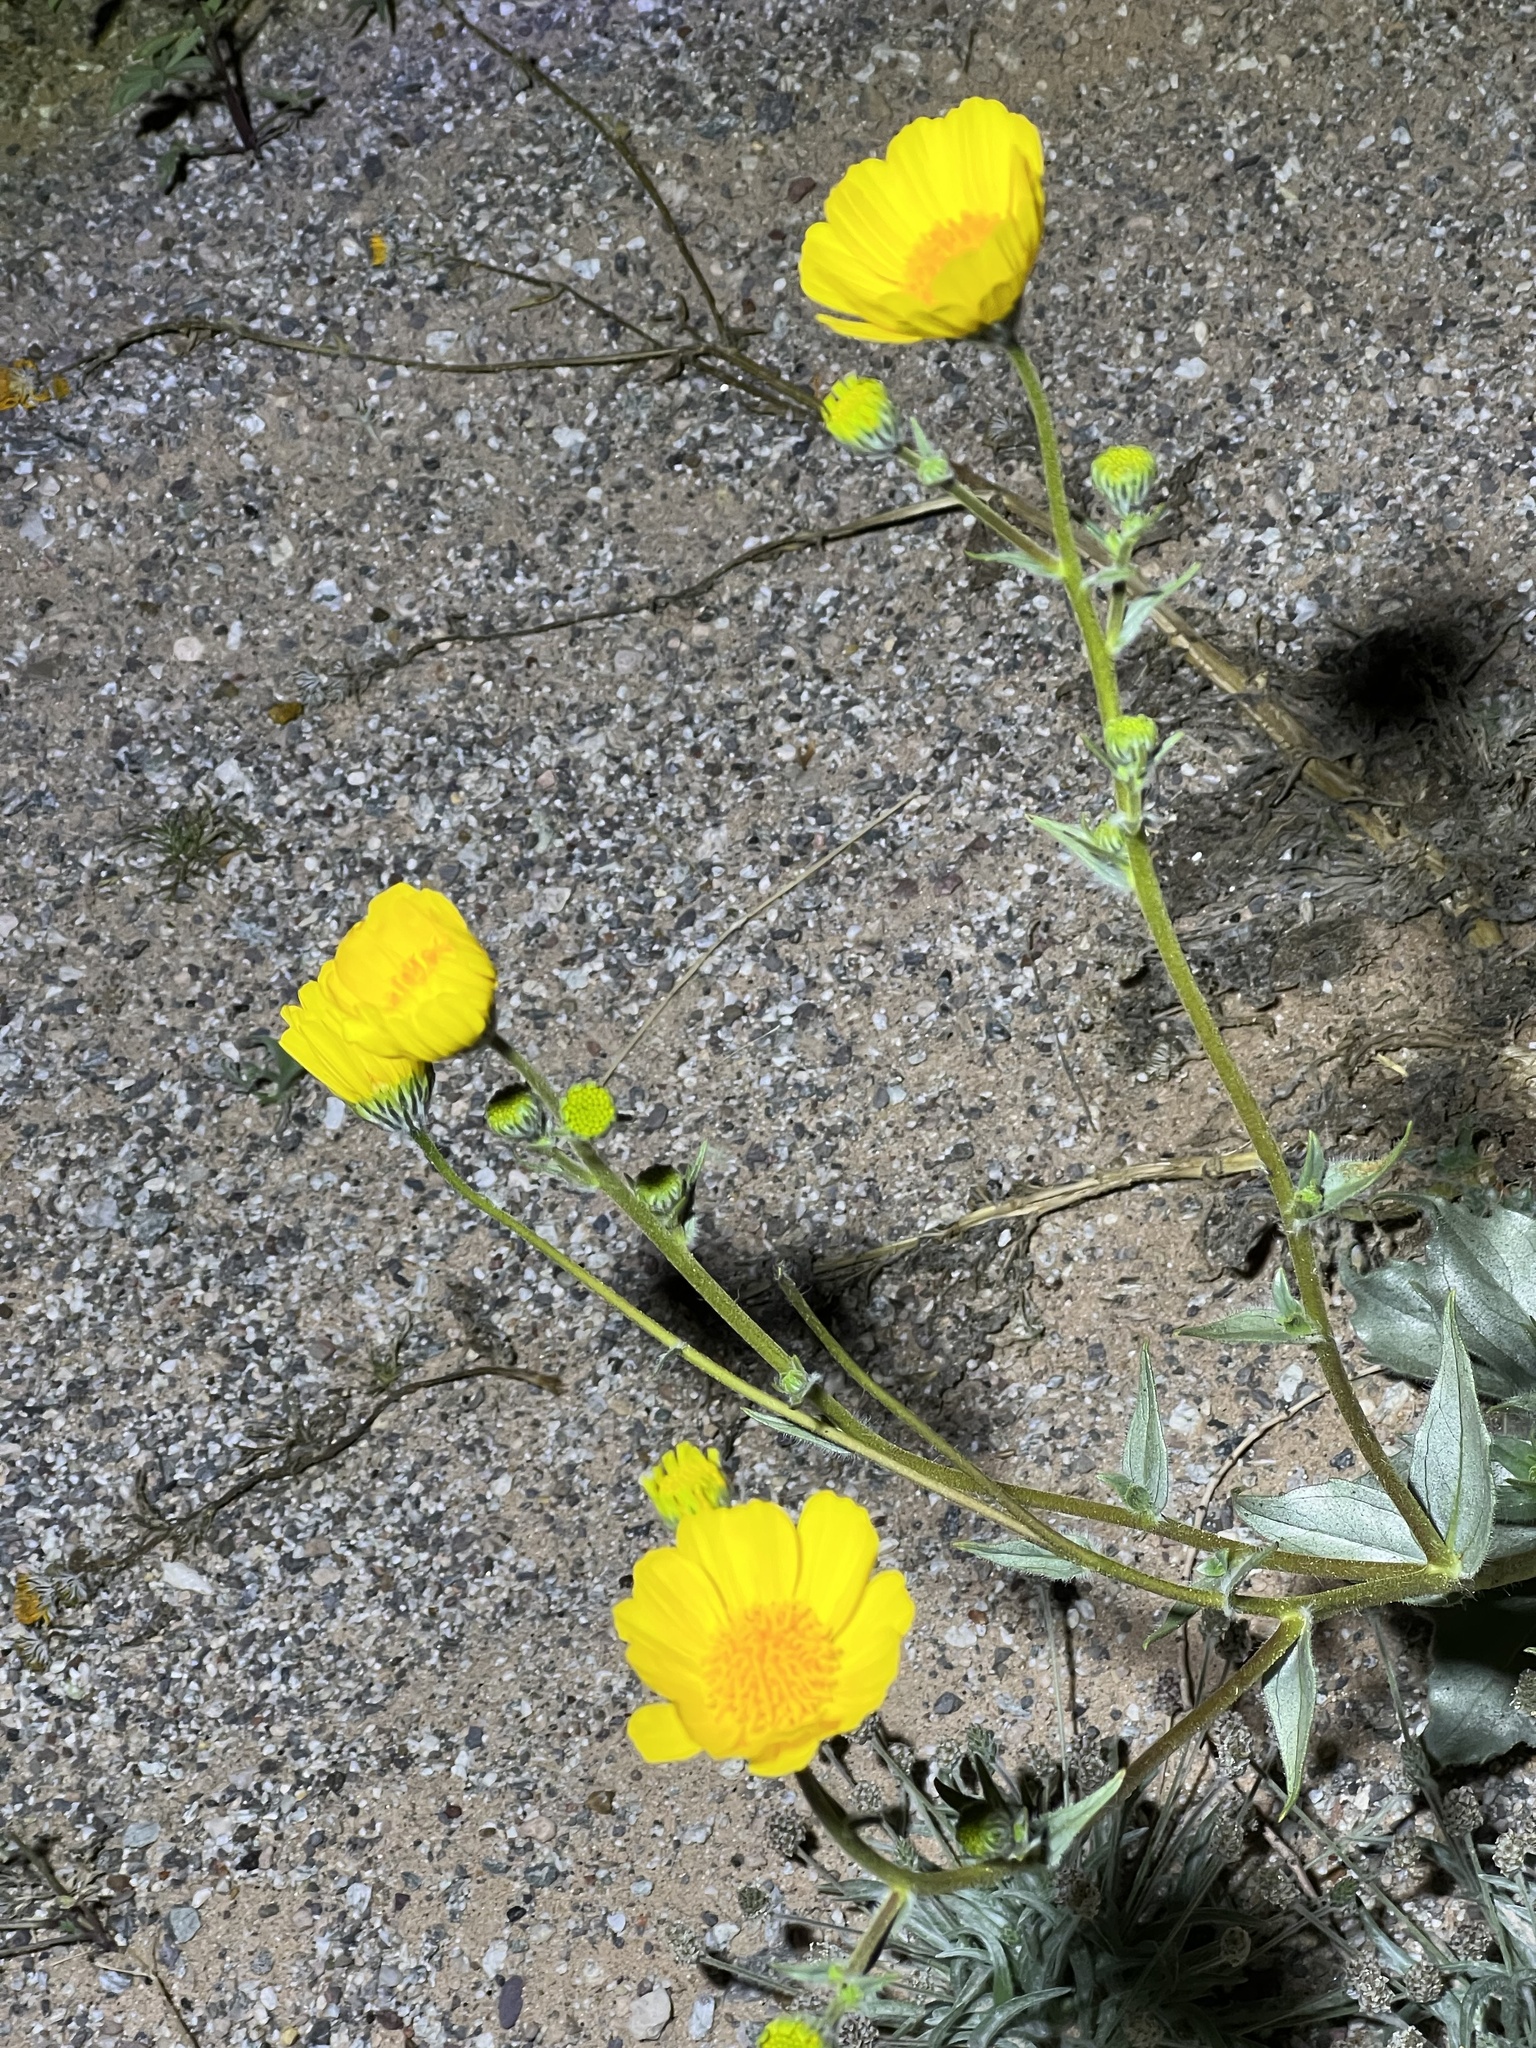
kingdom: Plantae
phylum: Tracheophyta
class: Magnoliopsida
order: Asterales
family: Asteraceae
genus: Geraea
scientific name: Geraea canescens
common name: Desert-gold
